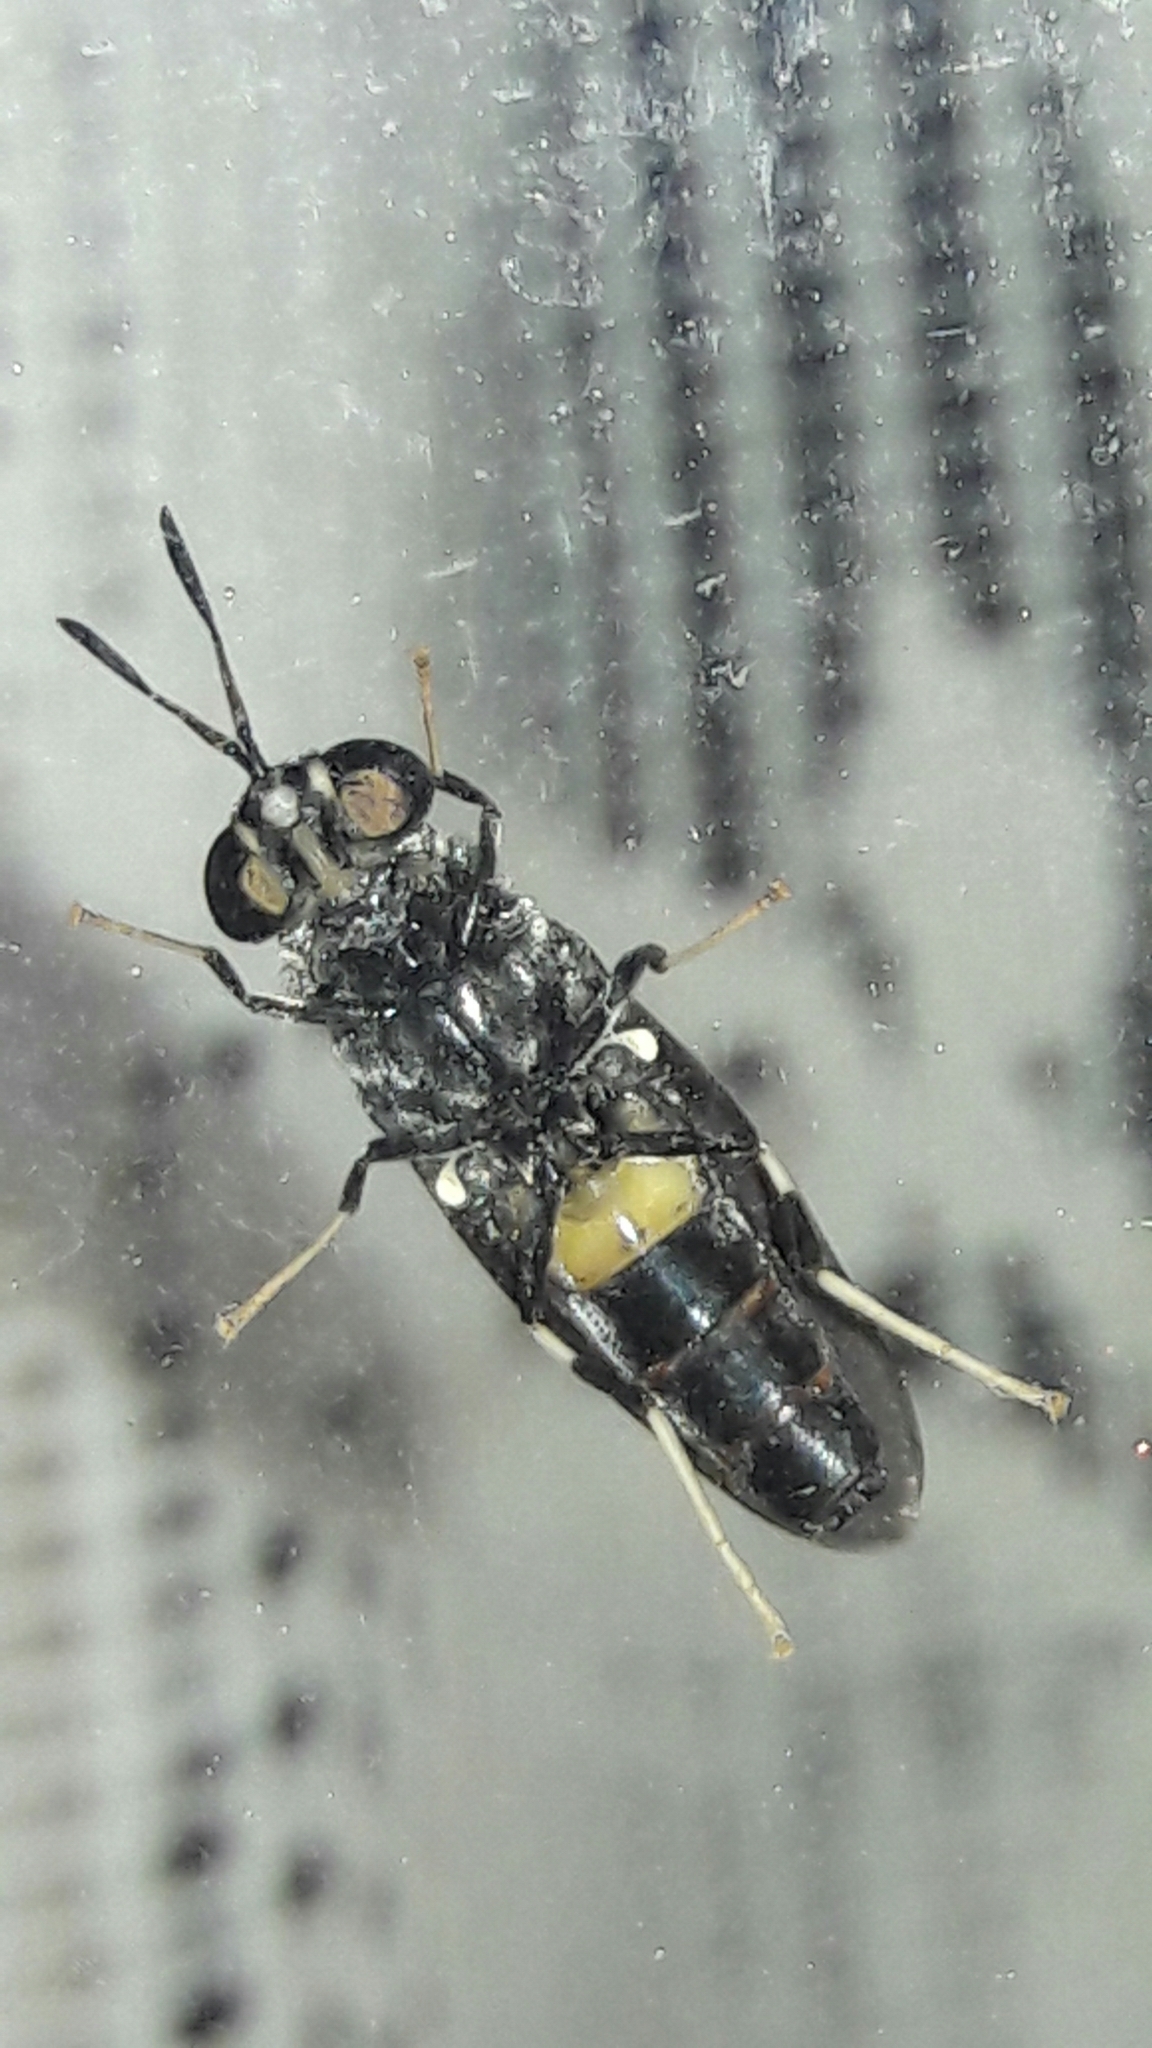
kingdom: Animalia
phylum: Arthropoda
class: Insecta
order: Diptera
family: Stratiomyidae
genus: Hermetia
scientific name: Hermetia illucens
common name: Black soldier fly
